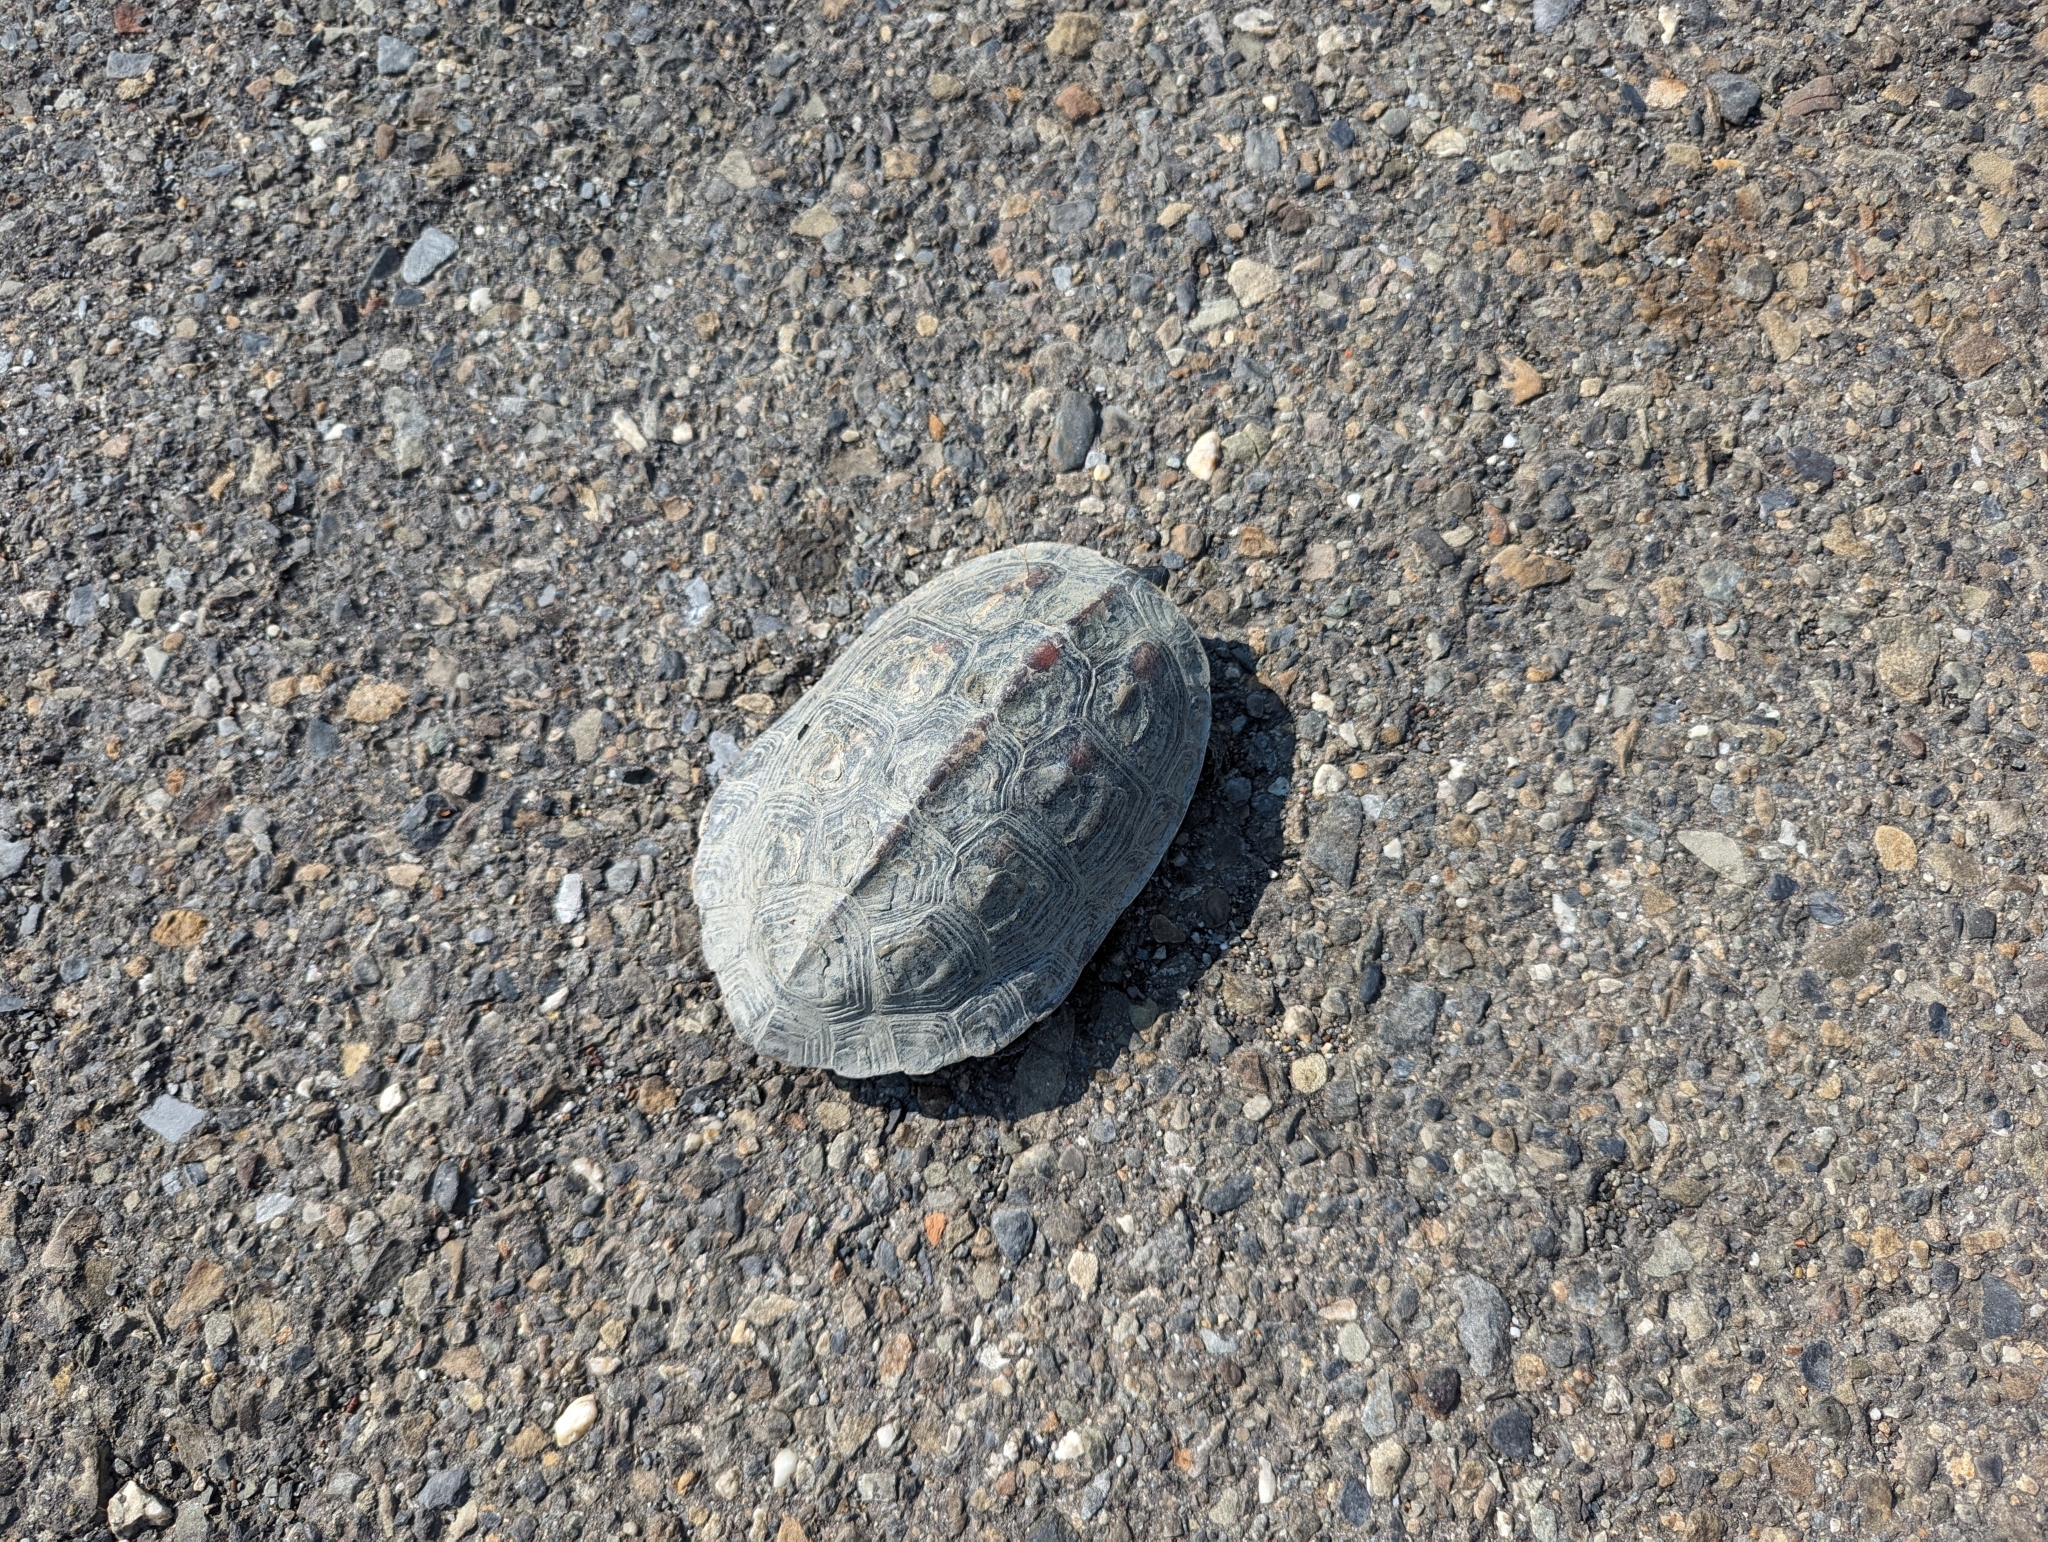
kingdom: Animalia
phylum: Chordata
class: Testudines
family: Geoemydidae
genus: Mauremys
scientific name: Mauremys sinensis
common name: Chinese stripe-necked turtle
